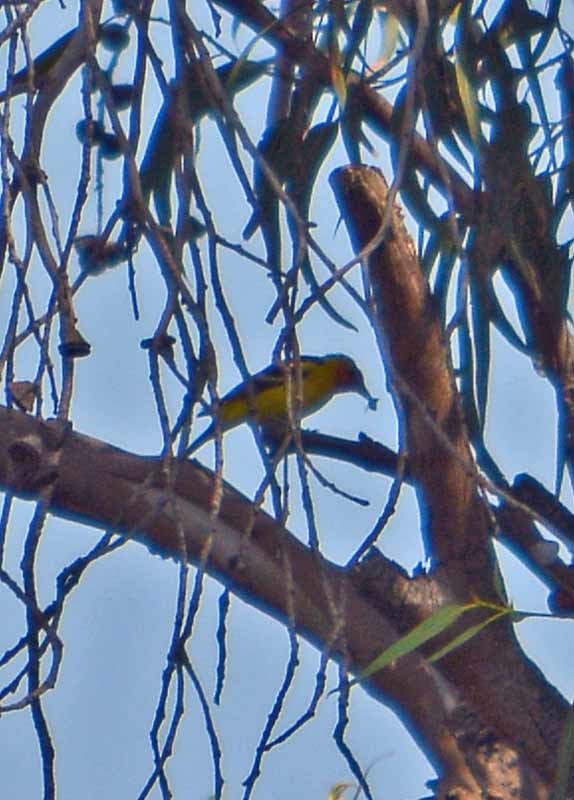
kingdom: Animalia
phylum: Chordata
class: Aves
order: Passeriformes
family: Cardinalidae
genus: Piranga
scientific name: Piranga ludoviciana
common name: Western tanager
